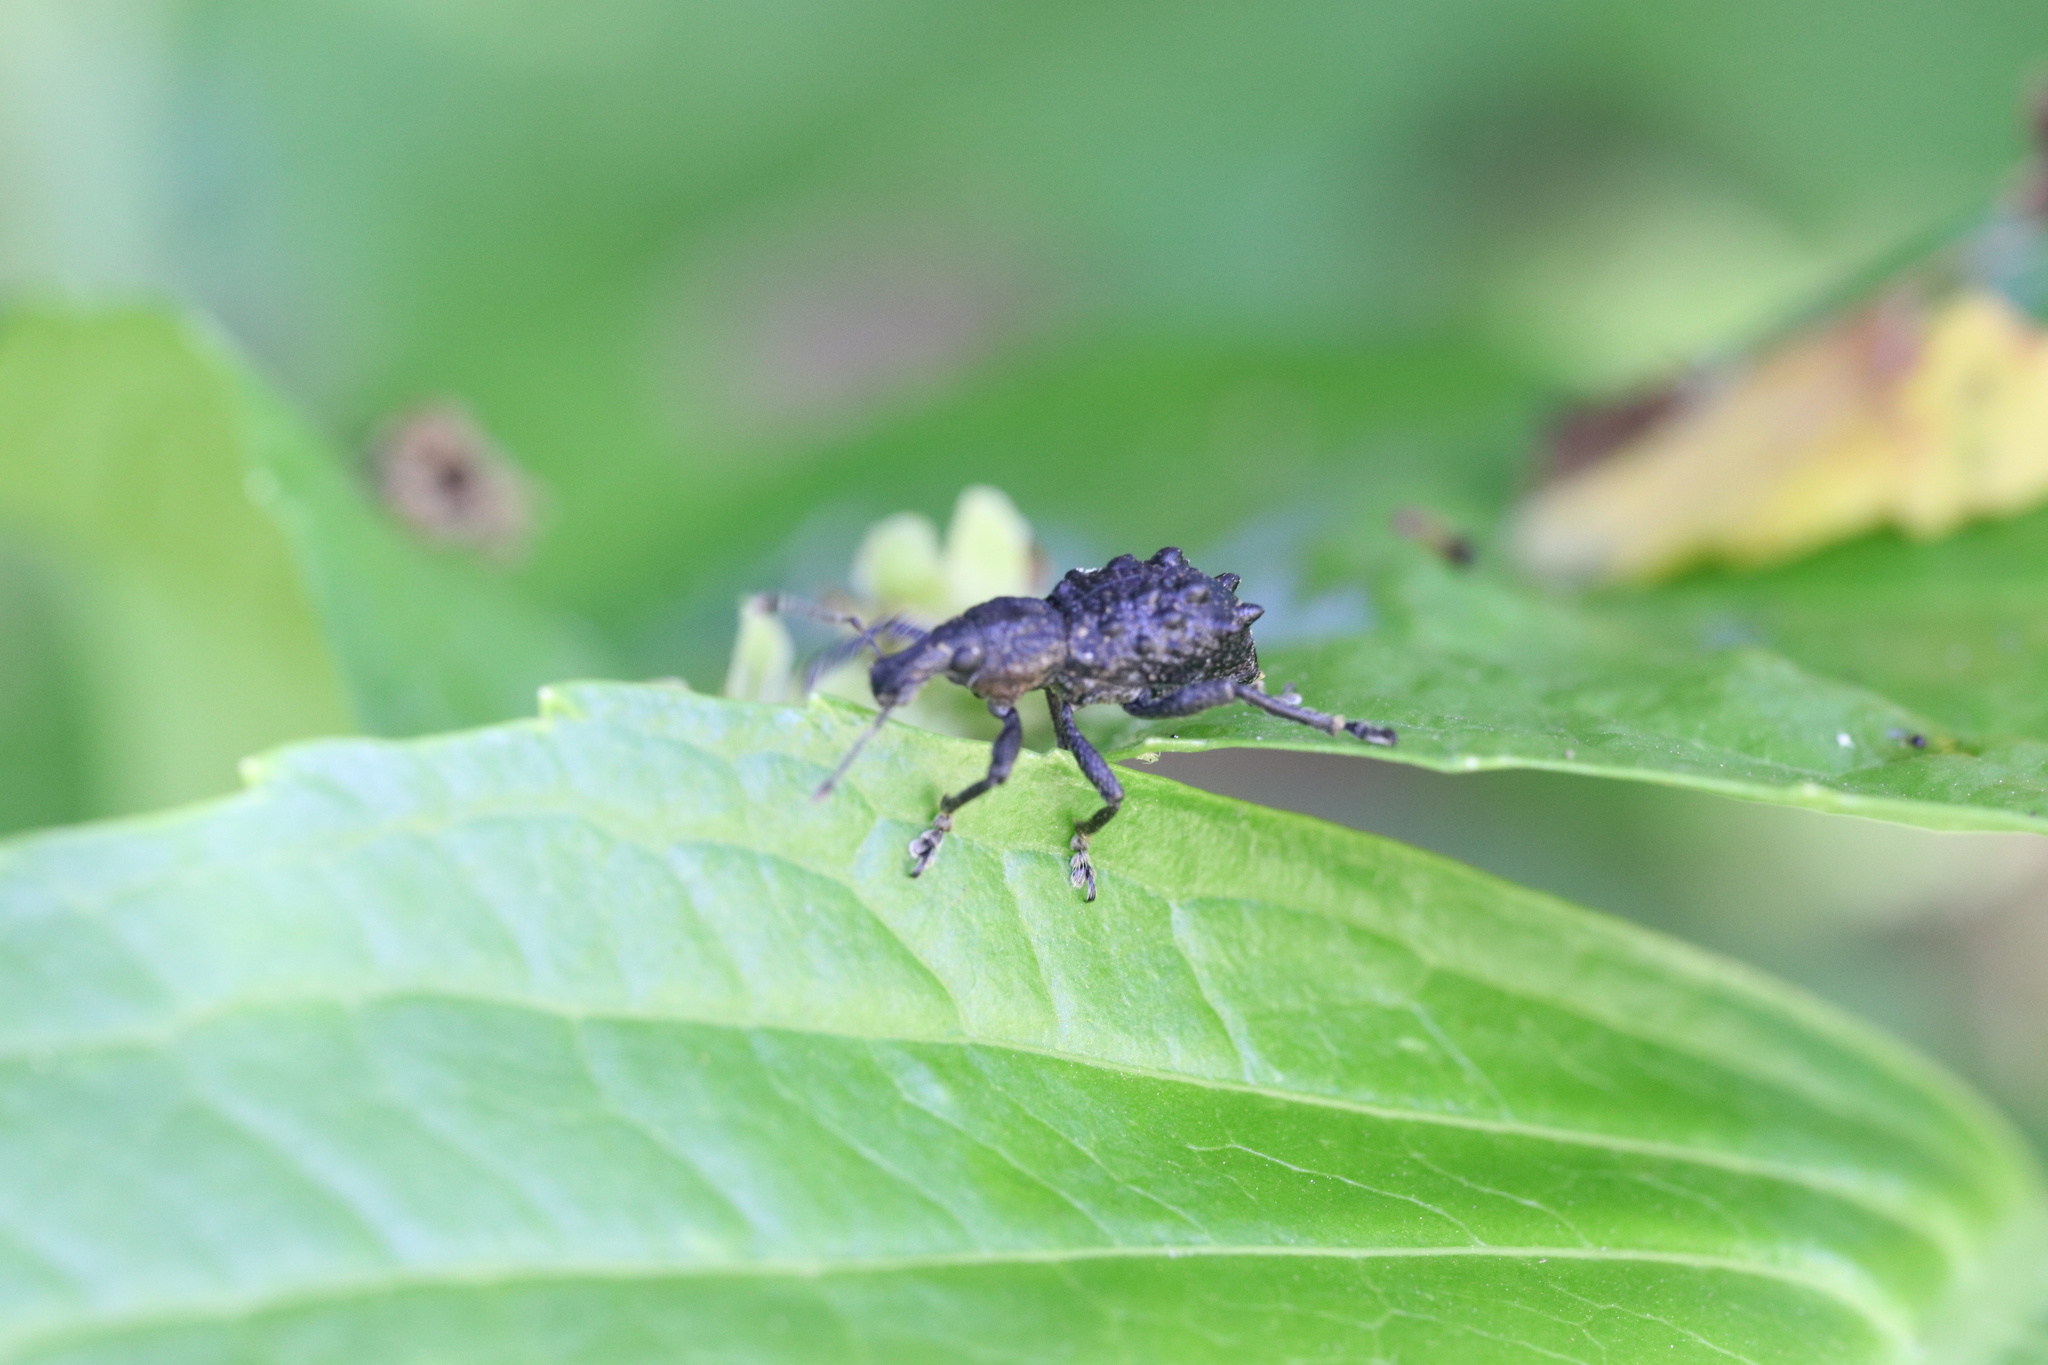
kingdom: Animalia
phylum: Arthropoda
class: Insecta
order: Coleoptera
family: Curculionidae
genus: Megalometis
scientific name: Megalometis spiniferus
